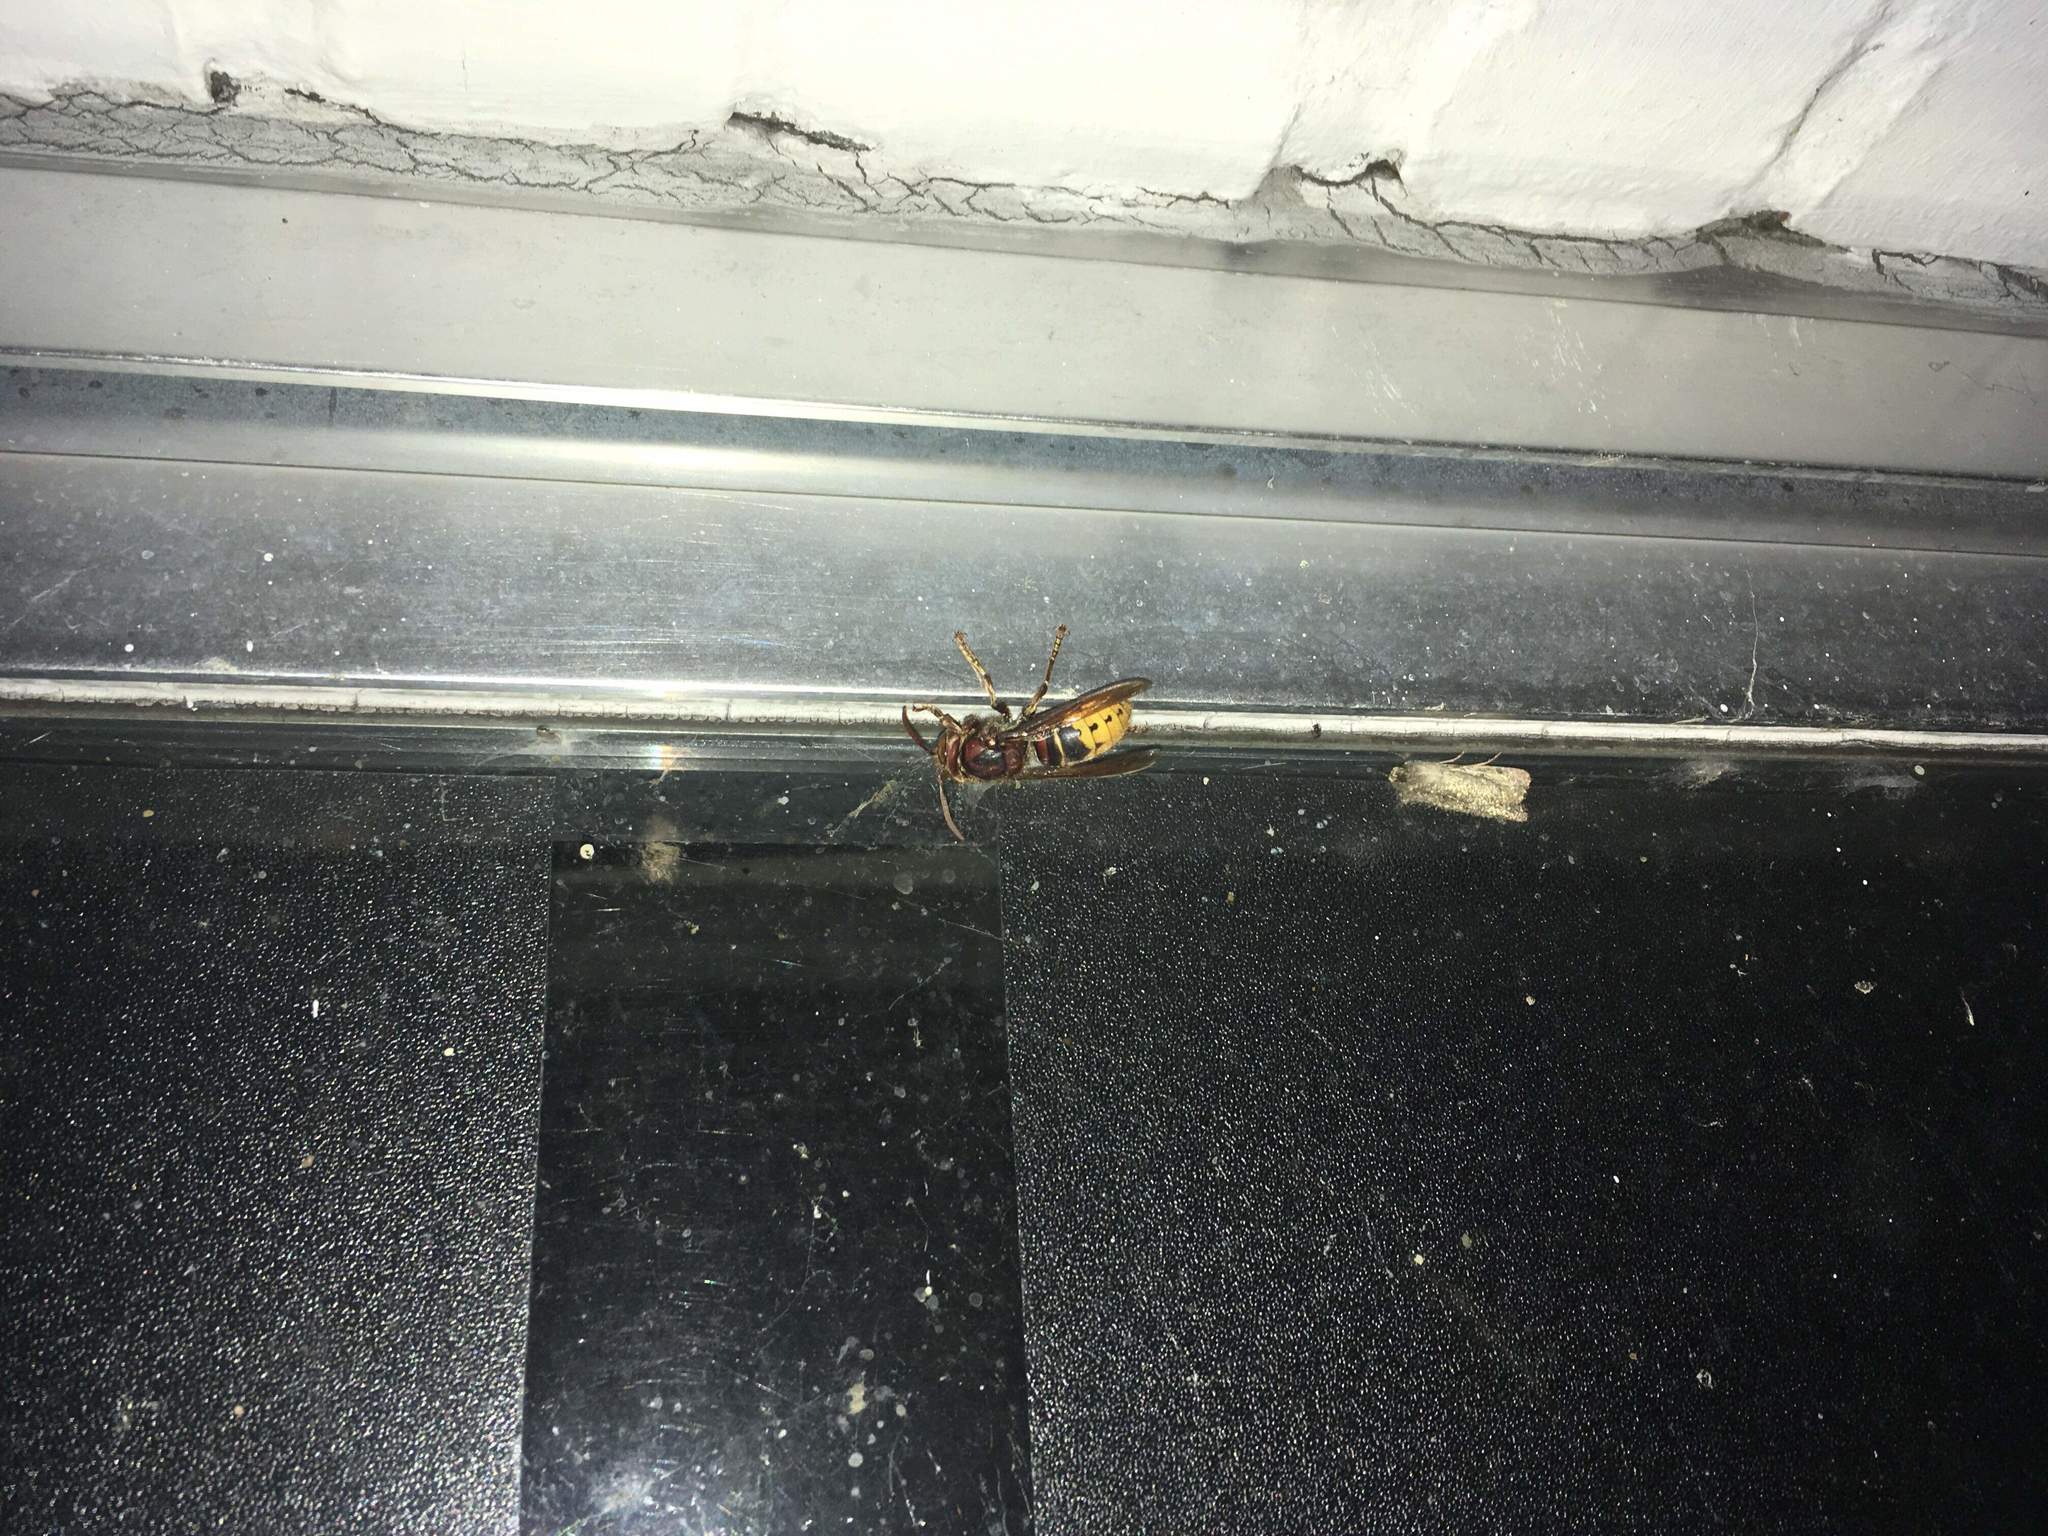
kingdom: Animalia
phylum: Arthropoda
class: Insecta
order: Hymenoptera
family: Vespidae
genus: Vespa
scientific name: Vespa crabro
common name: Hornet
